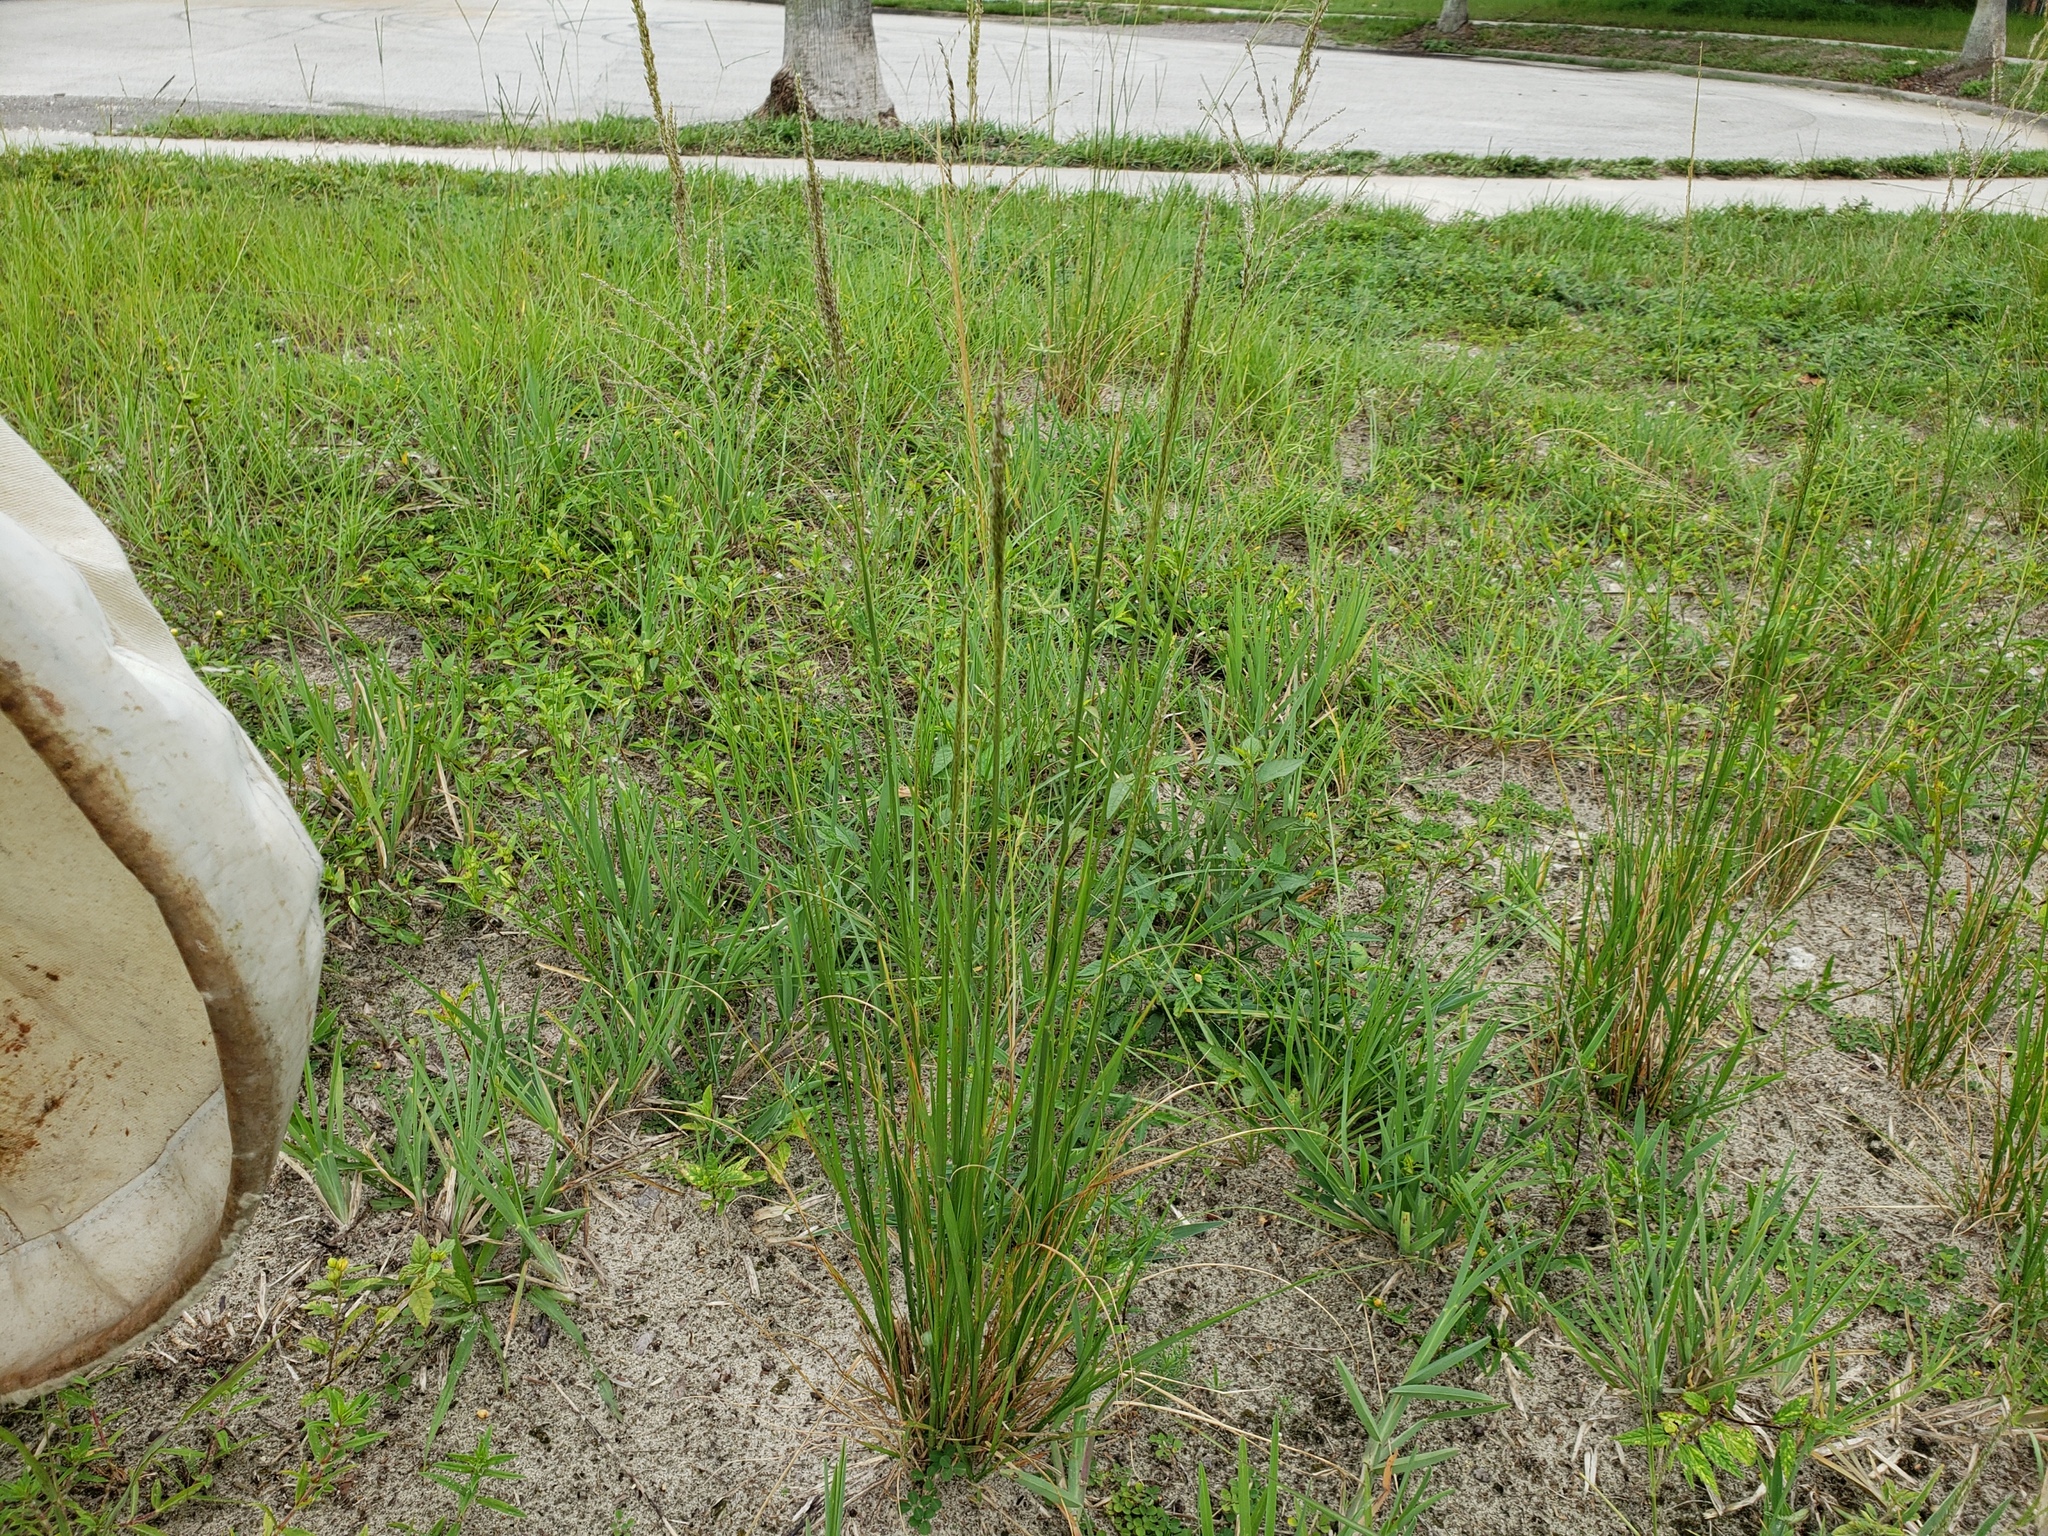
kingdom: Plantae
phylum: Tracheophyta
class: Liliopsida
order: Poales
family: Poaceae
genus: Sporobolus
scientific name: Sporobolus pyramidalis
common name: West indian dropseed
